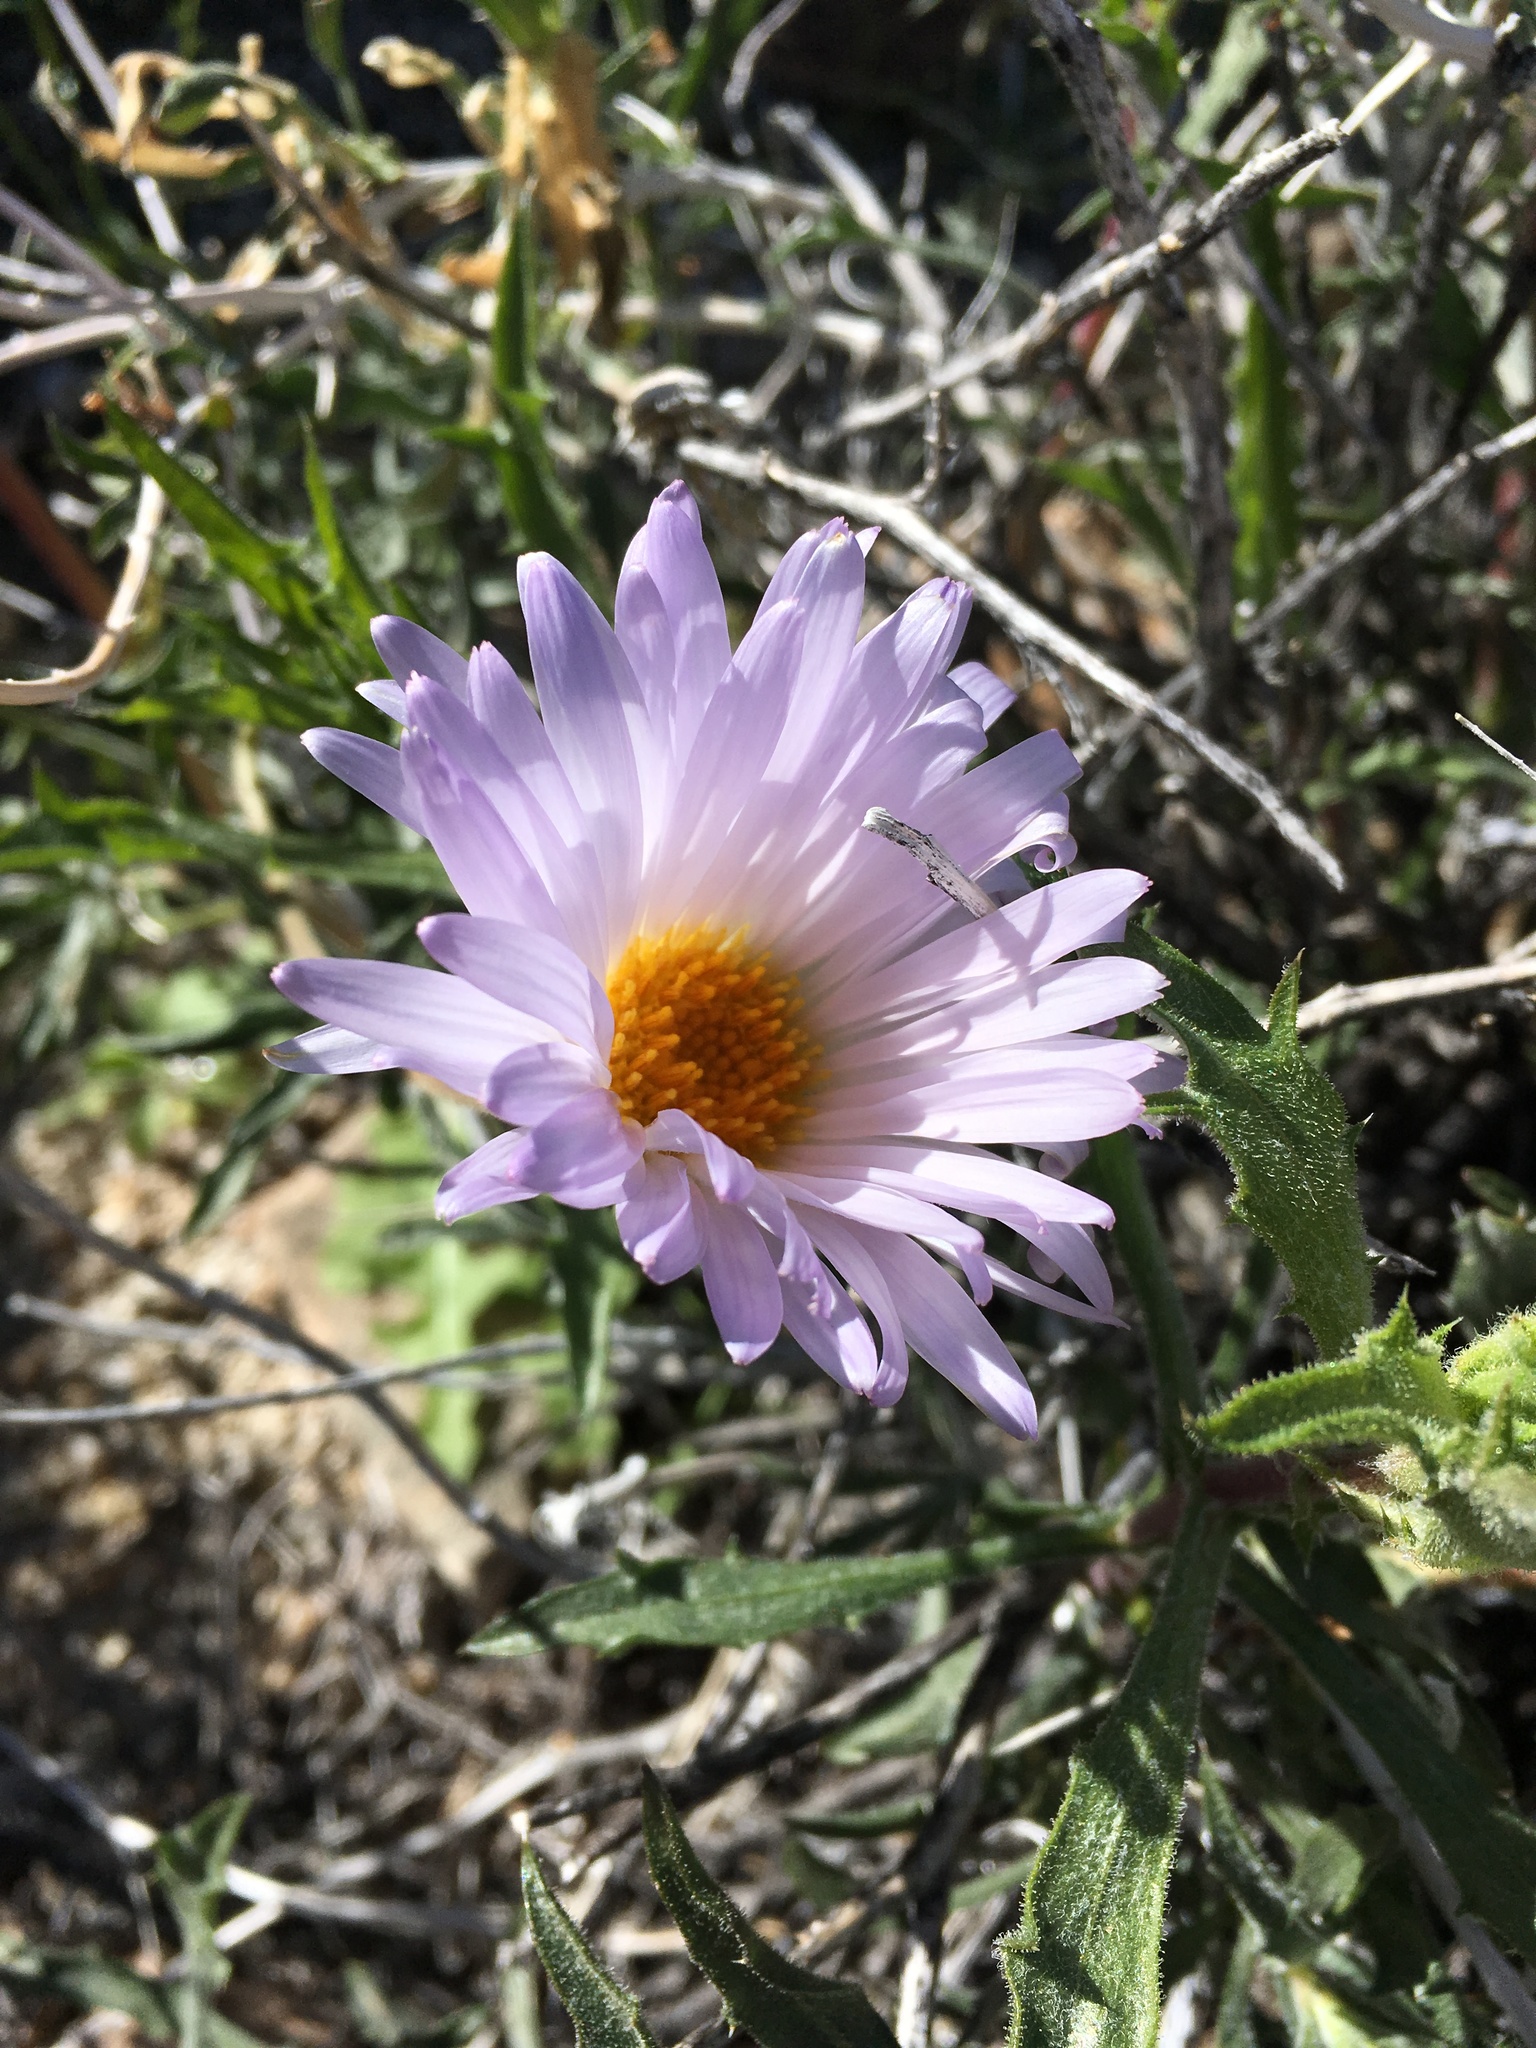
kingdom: Plantae
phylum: Tracheophyta
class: Magnoliopsida
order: Asterales
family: Asteraceae
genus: Xylorhiza
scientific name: Xylorhiza tortifolia
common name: Hurt-leaf woody-aster
